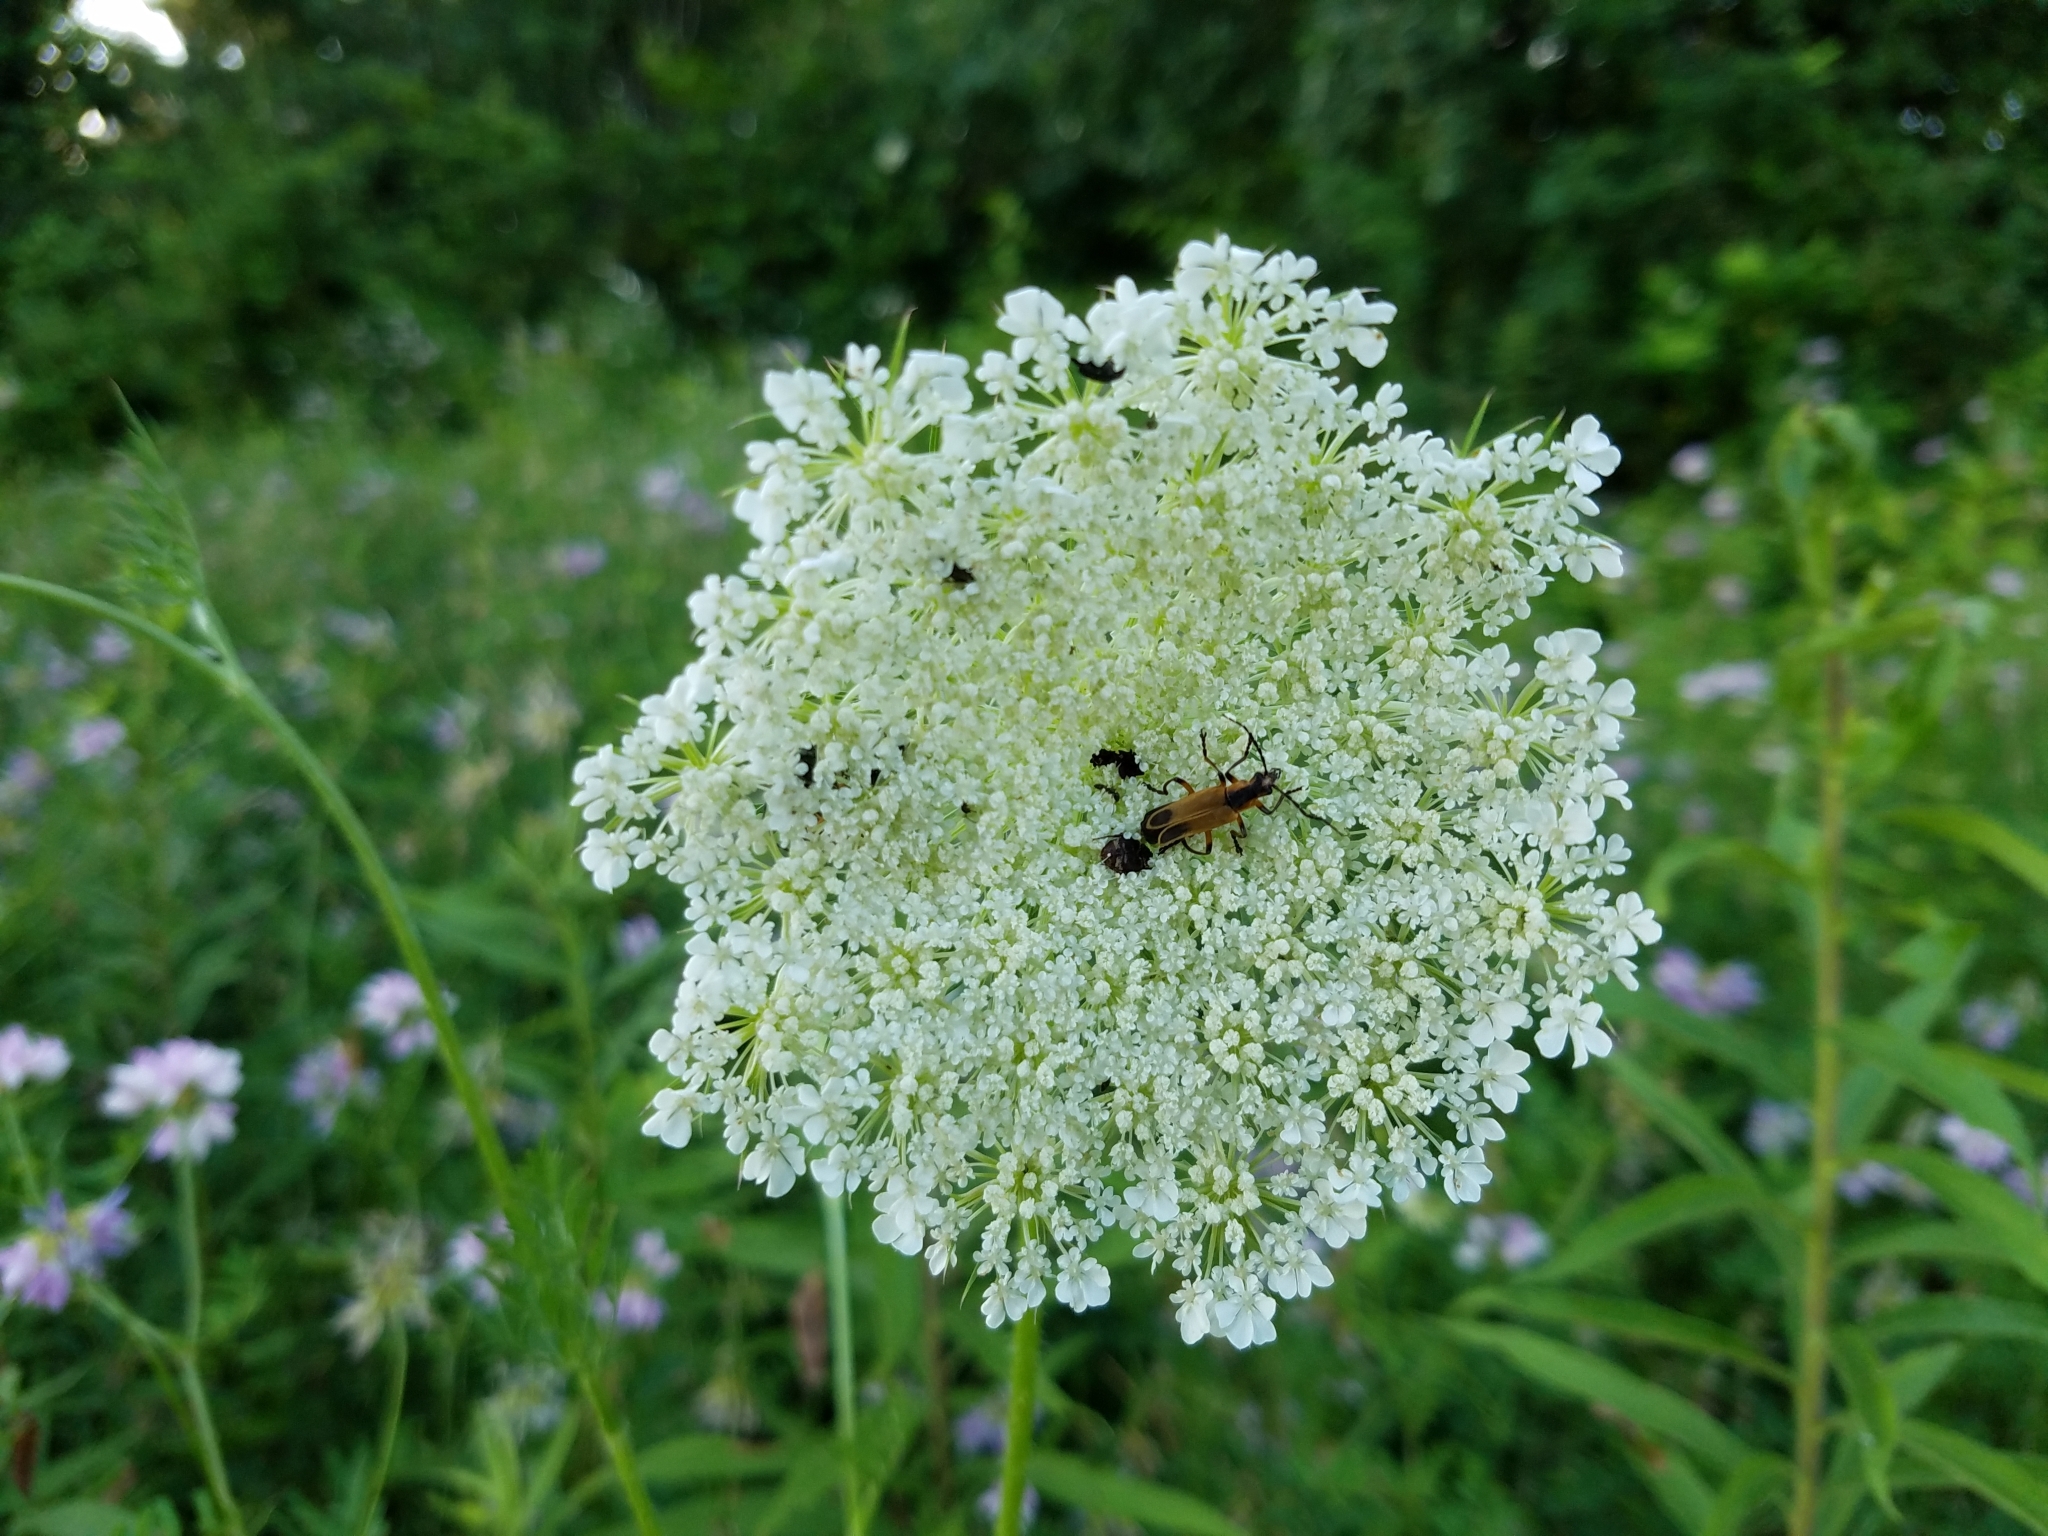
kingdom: Animalia
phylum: Arthropoda
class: Insecta
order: Coleoptera
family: Cantharidae
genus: Chauliognathus
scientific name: Chauliognathus marginatus
